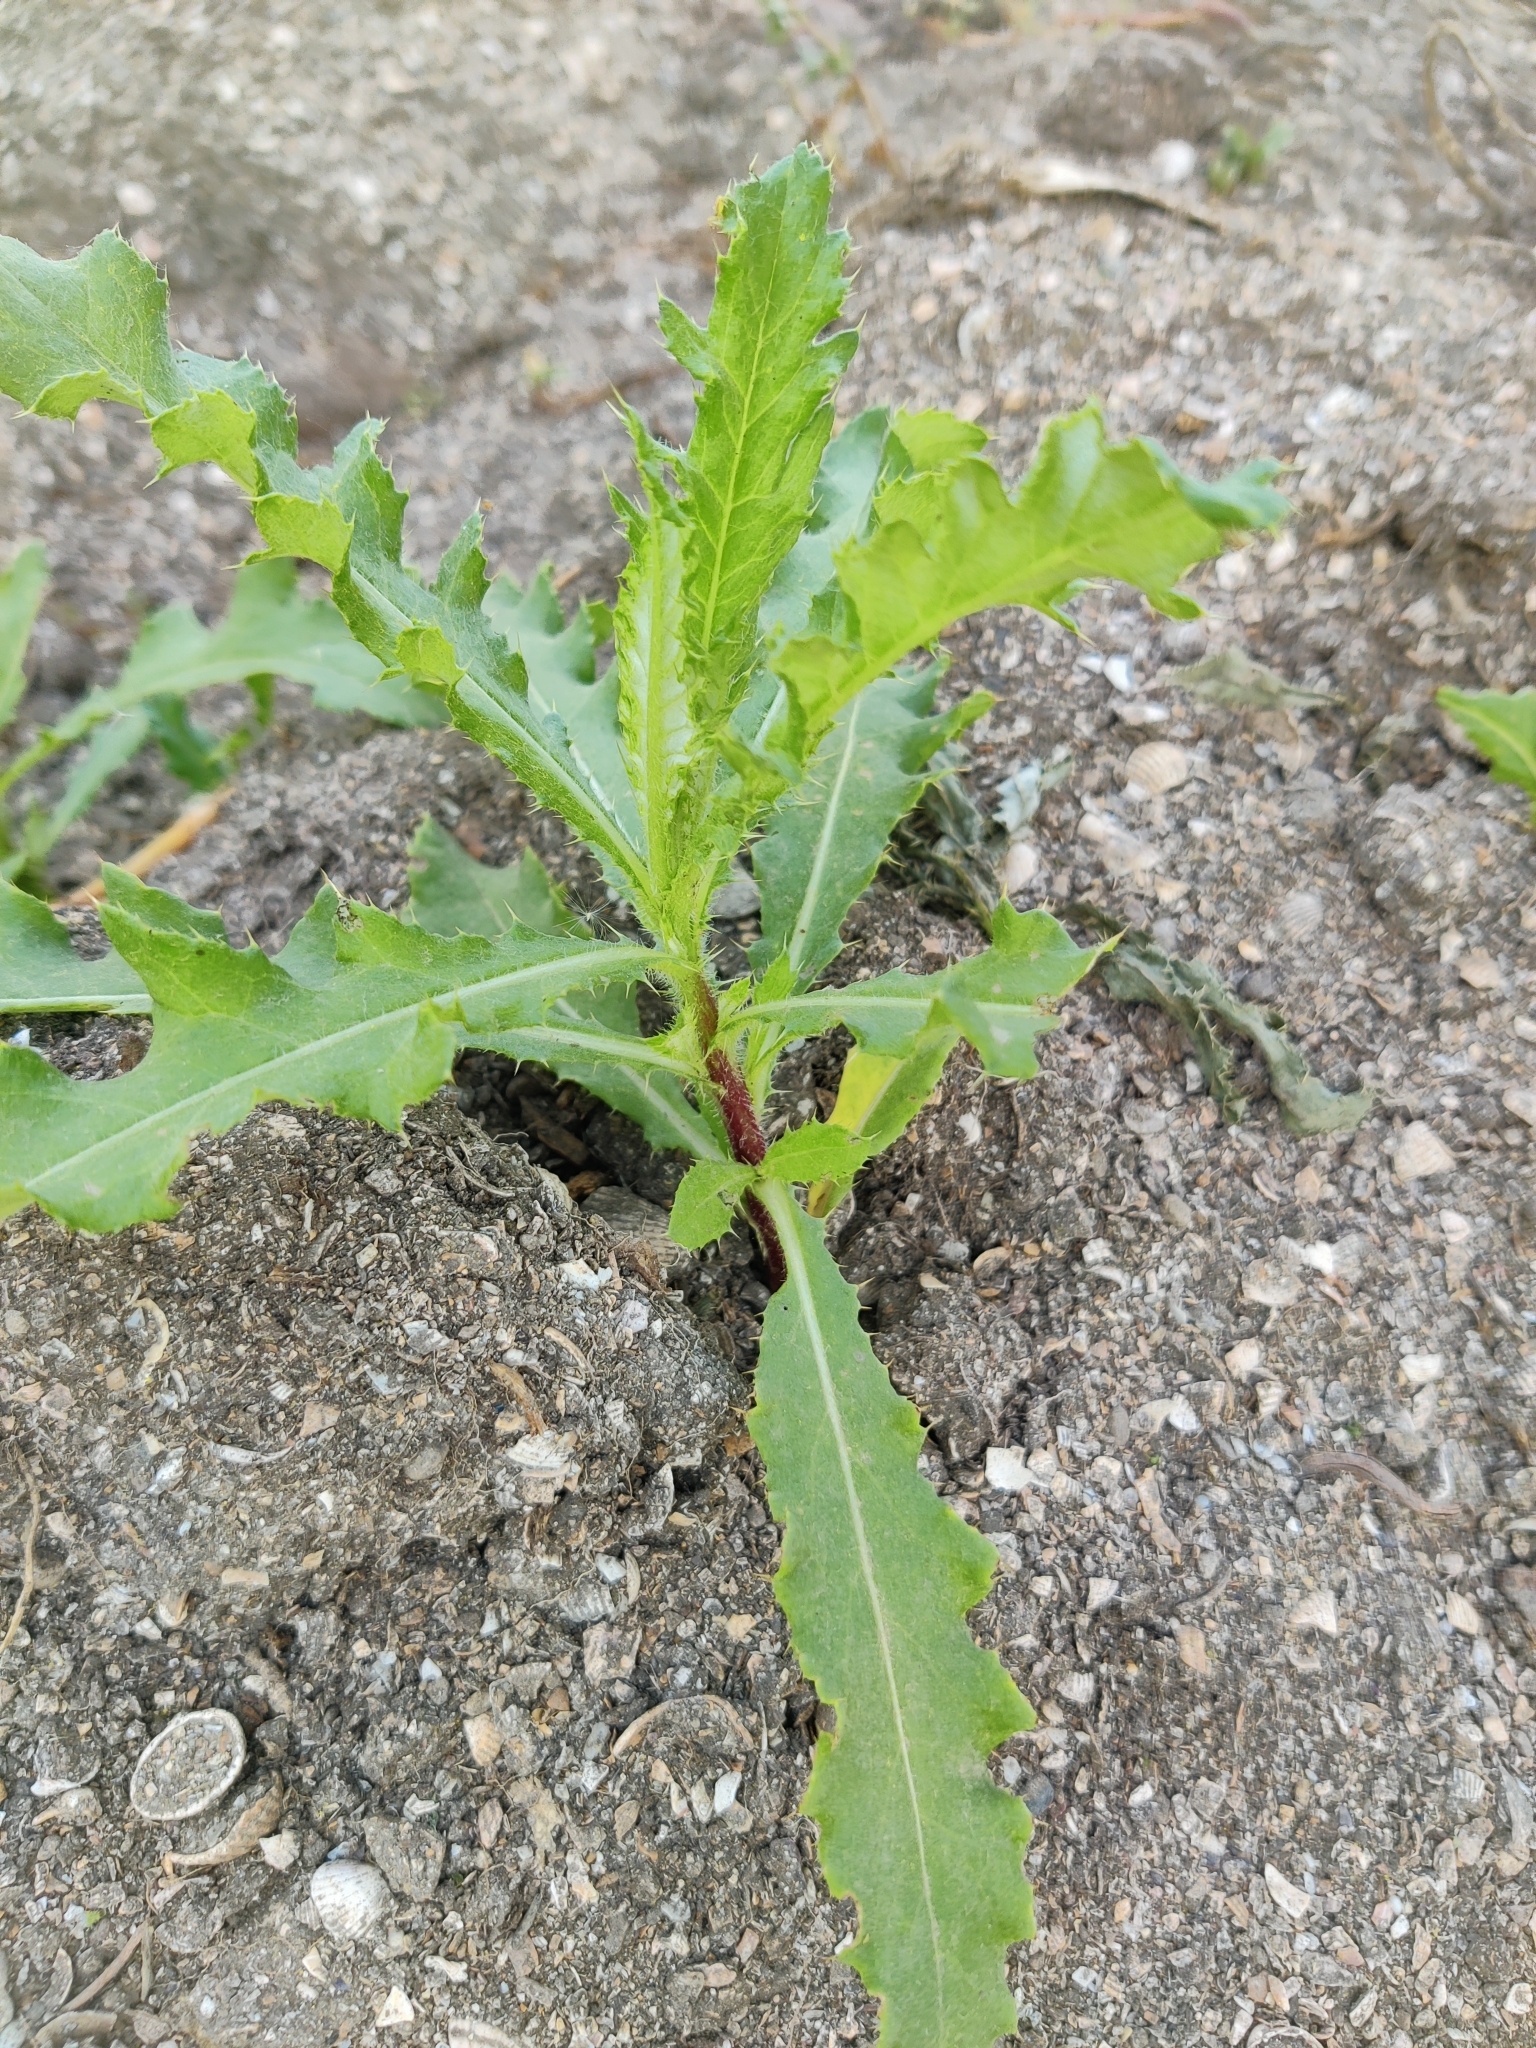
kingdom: Plantae
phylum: Tracheophyta
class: Magnoliopsida
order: Asterales
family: Asteraceae
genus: Lactuca
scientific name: Lactuca serriola
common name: Prickly lettuce
